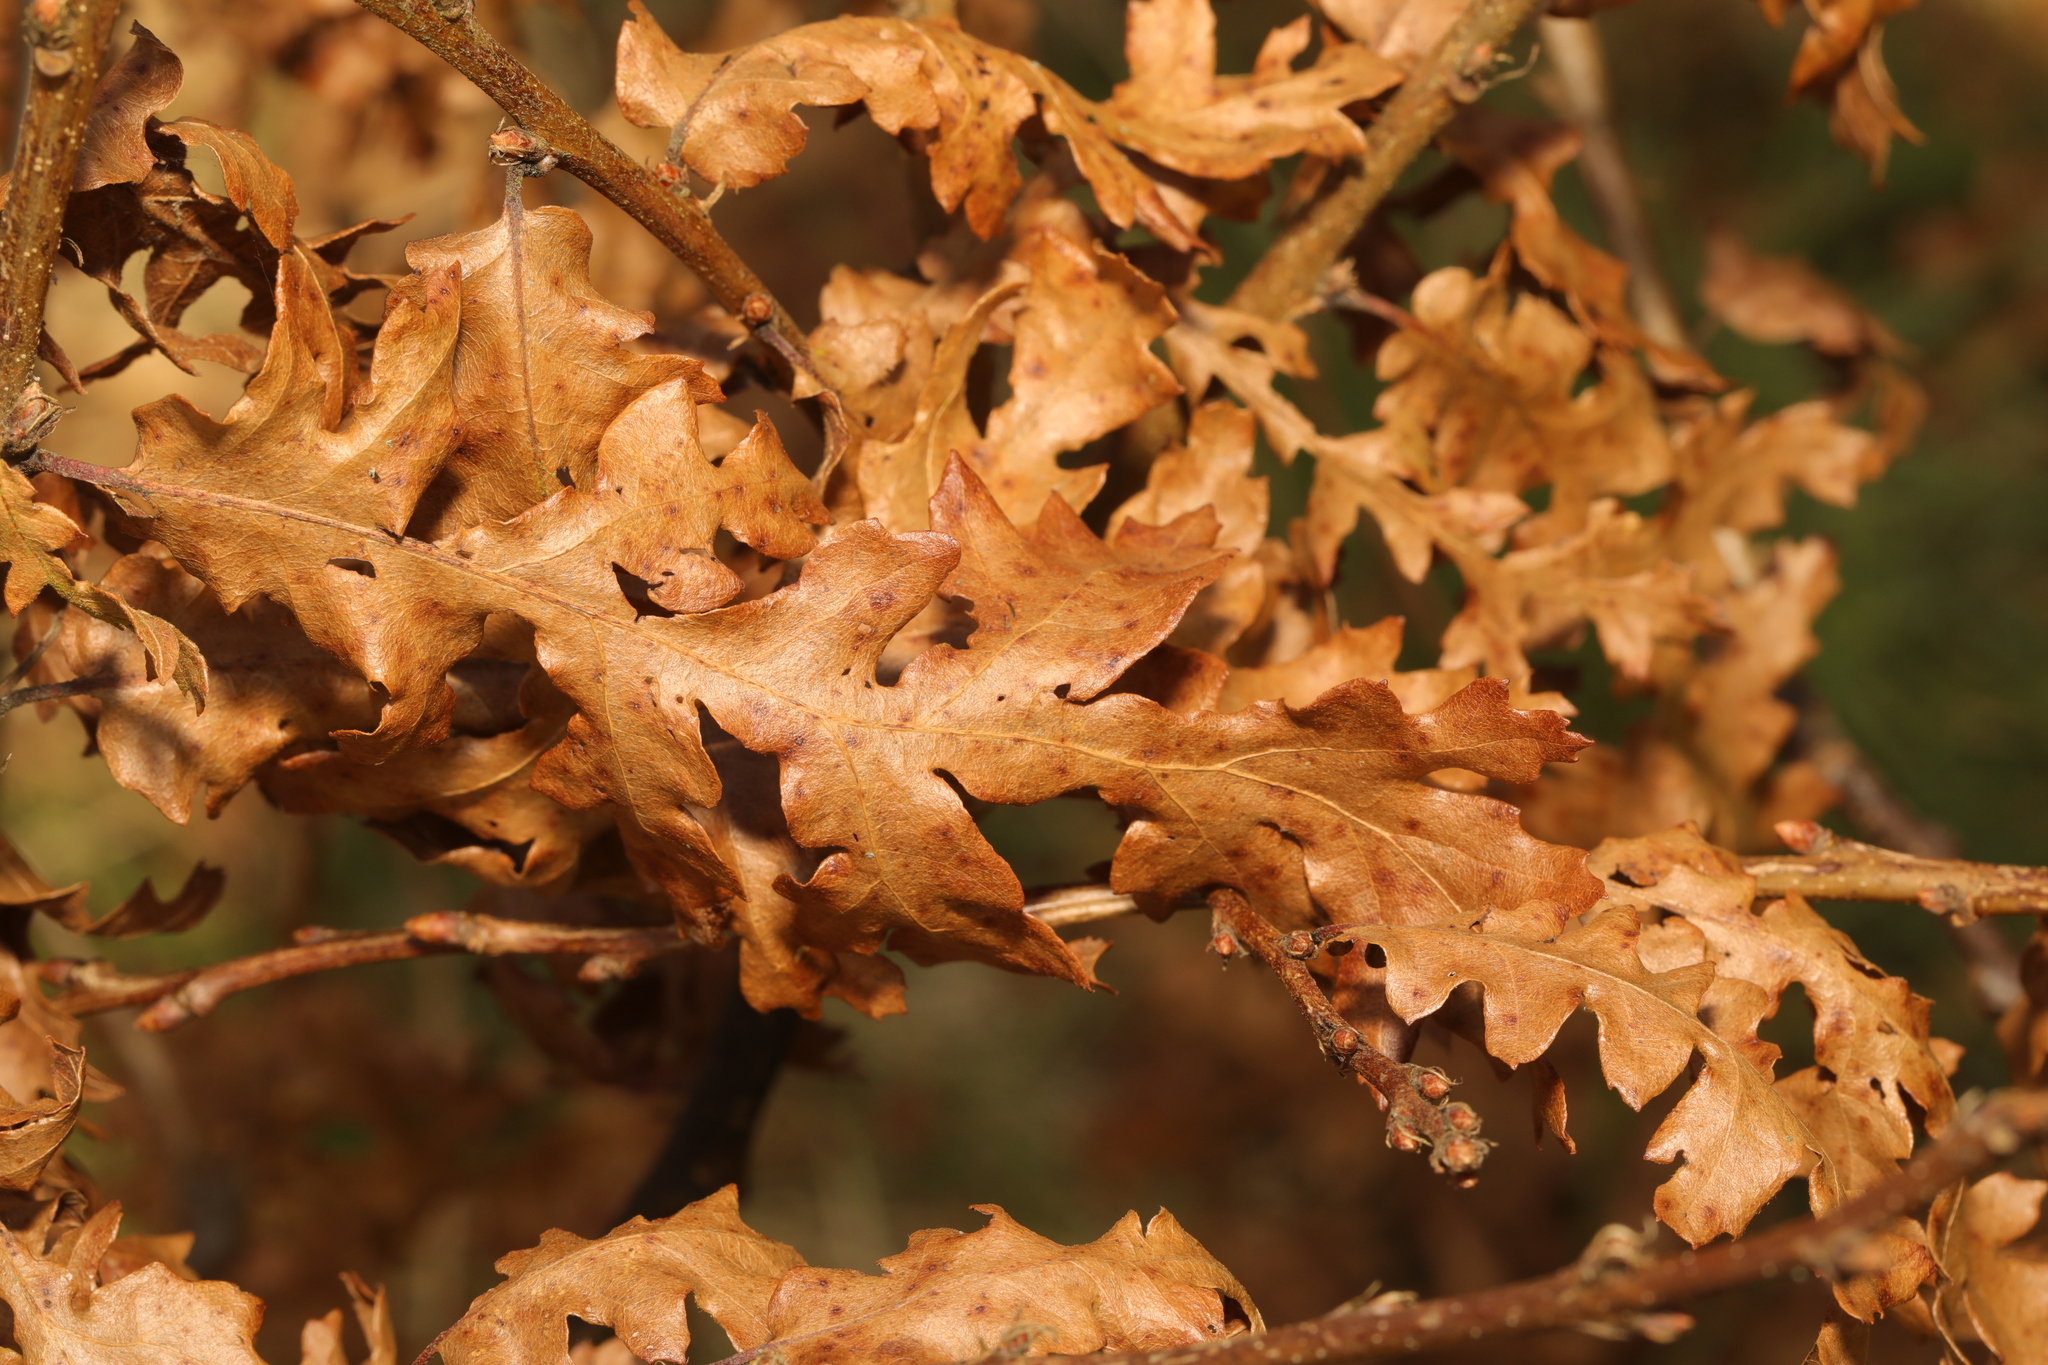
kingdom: Plantae
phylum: Tracheophyta
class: Magnoliopsida
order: Fagales
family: Fagaceae
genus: Quercus
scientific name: Quercus cerris
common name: Turkey oak
